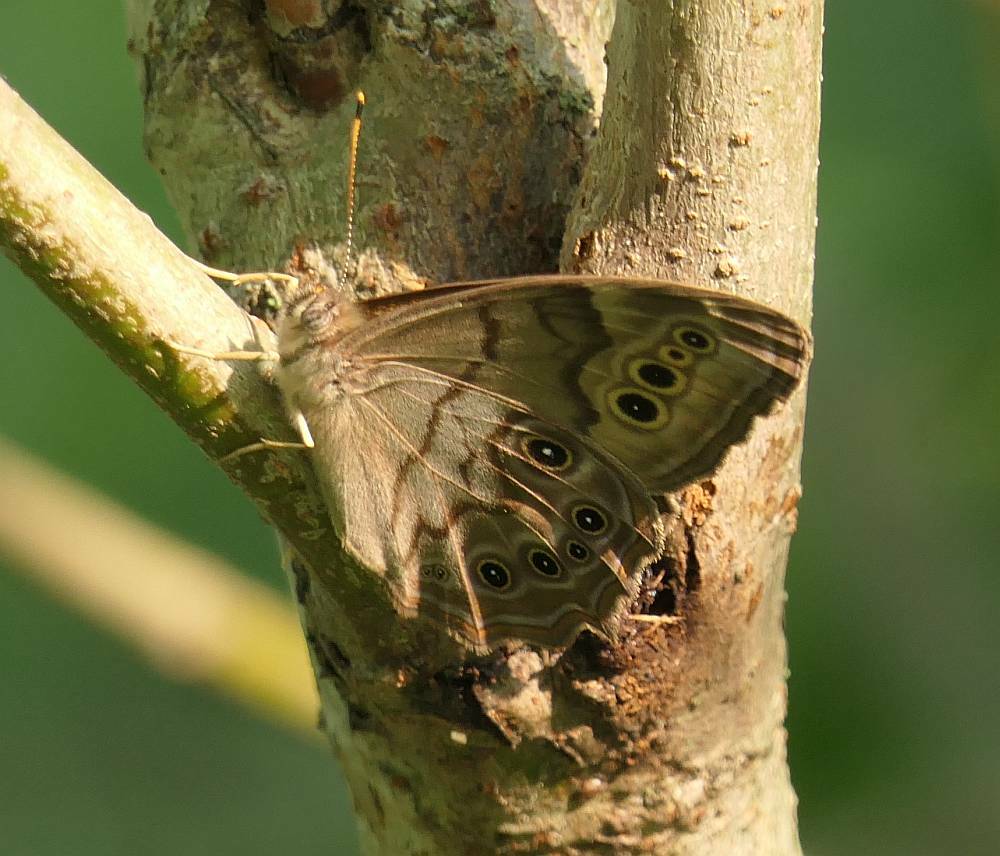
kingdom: Animalia
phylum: Arthropoda
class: Insecta
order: Lepidoptera
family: Nymphalidae
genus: Lethe
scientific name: Lethe anthedon
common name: Northern pearly-eye
